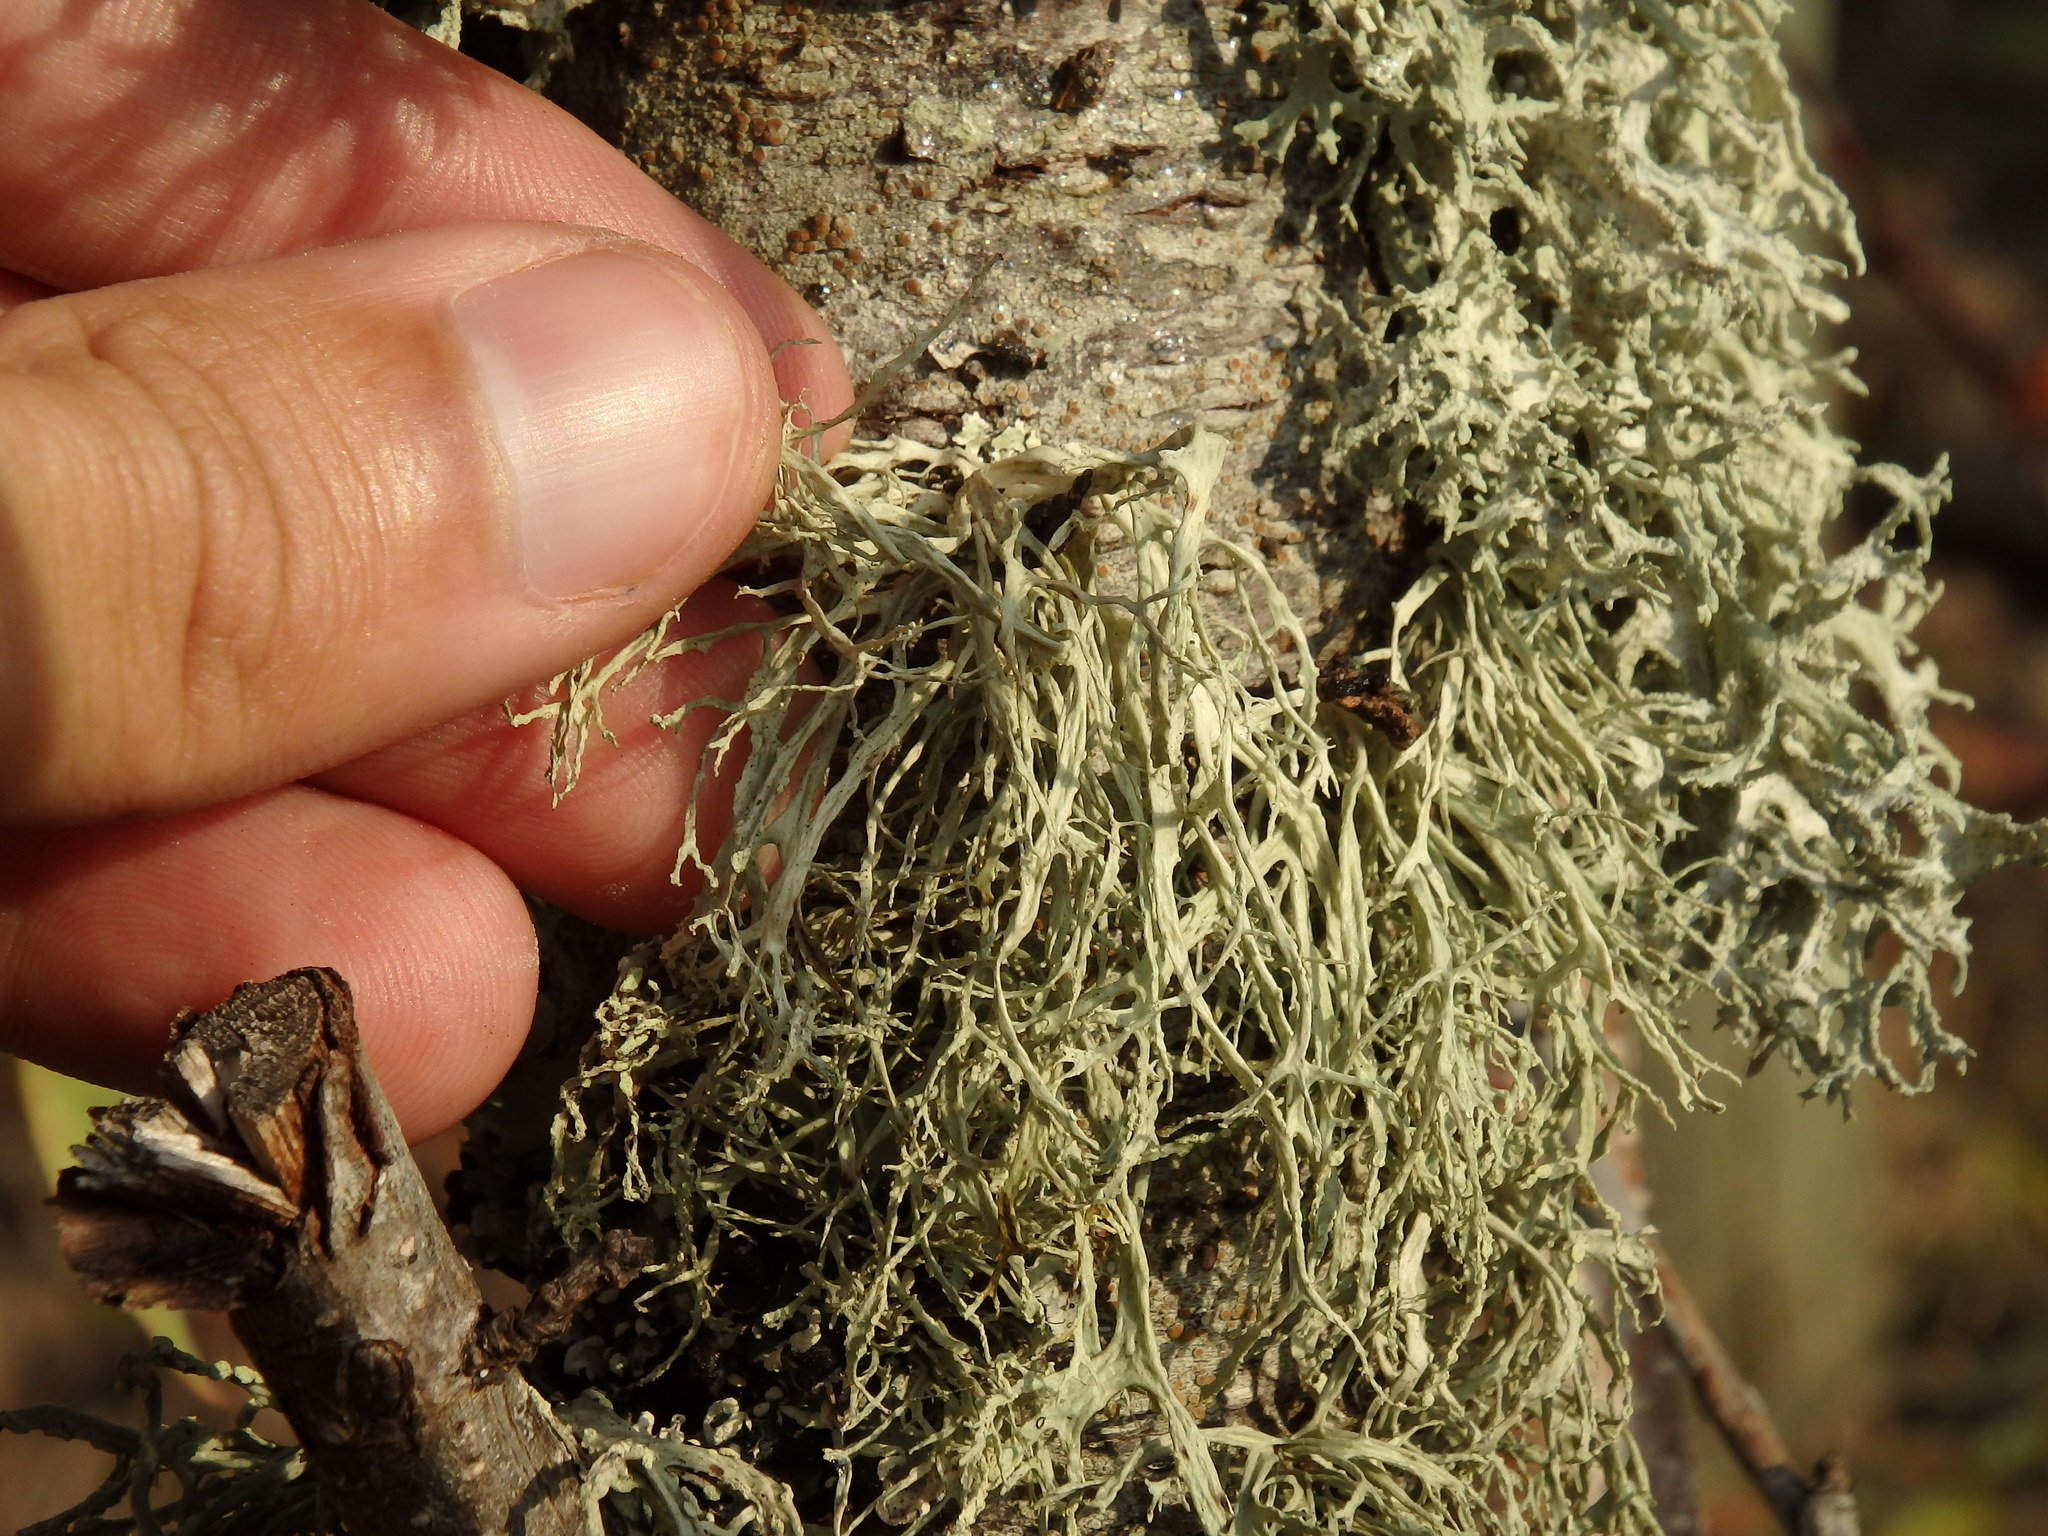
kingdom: Fungi
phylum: Ascomycota
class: Lecanoromycetes
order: Lecanorales
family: Ramalinaceae
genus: Ramalina
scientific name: Ramalina farinacea
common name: Farinose cartilage lichen
